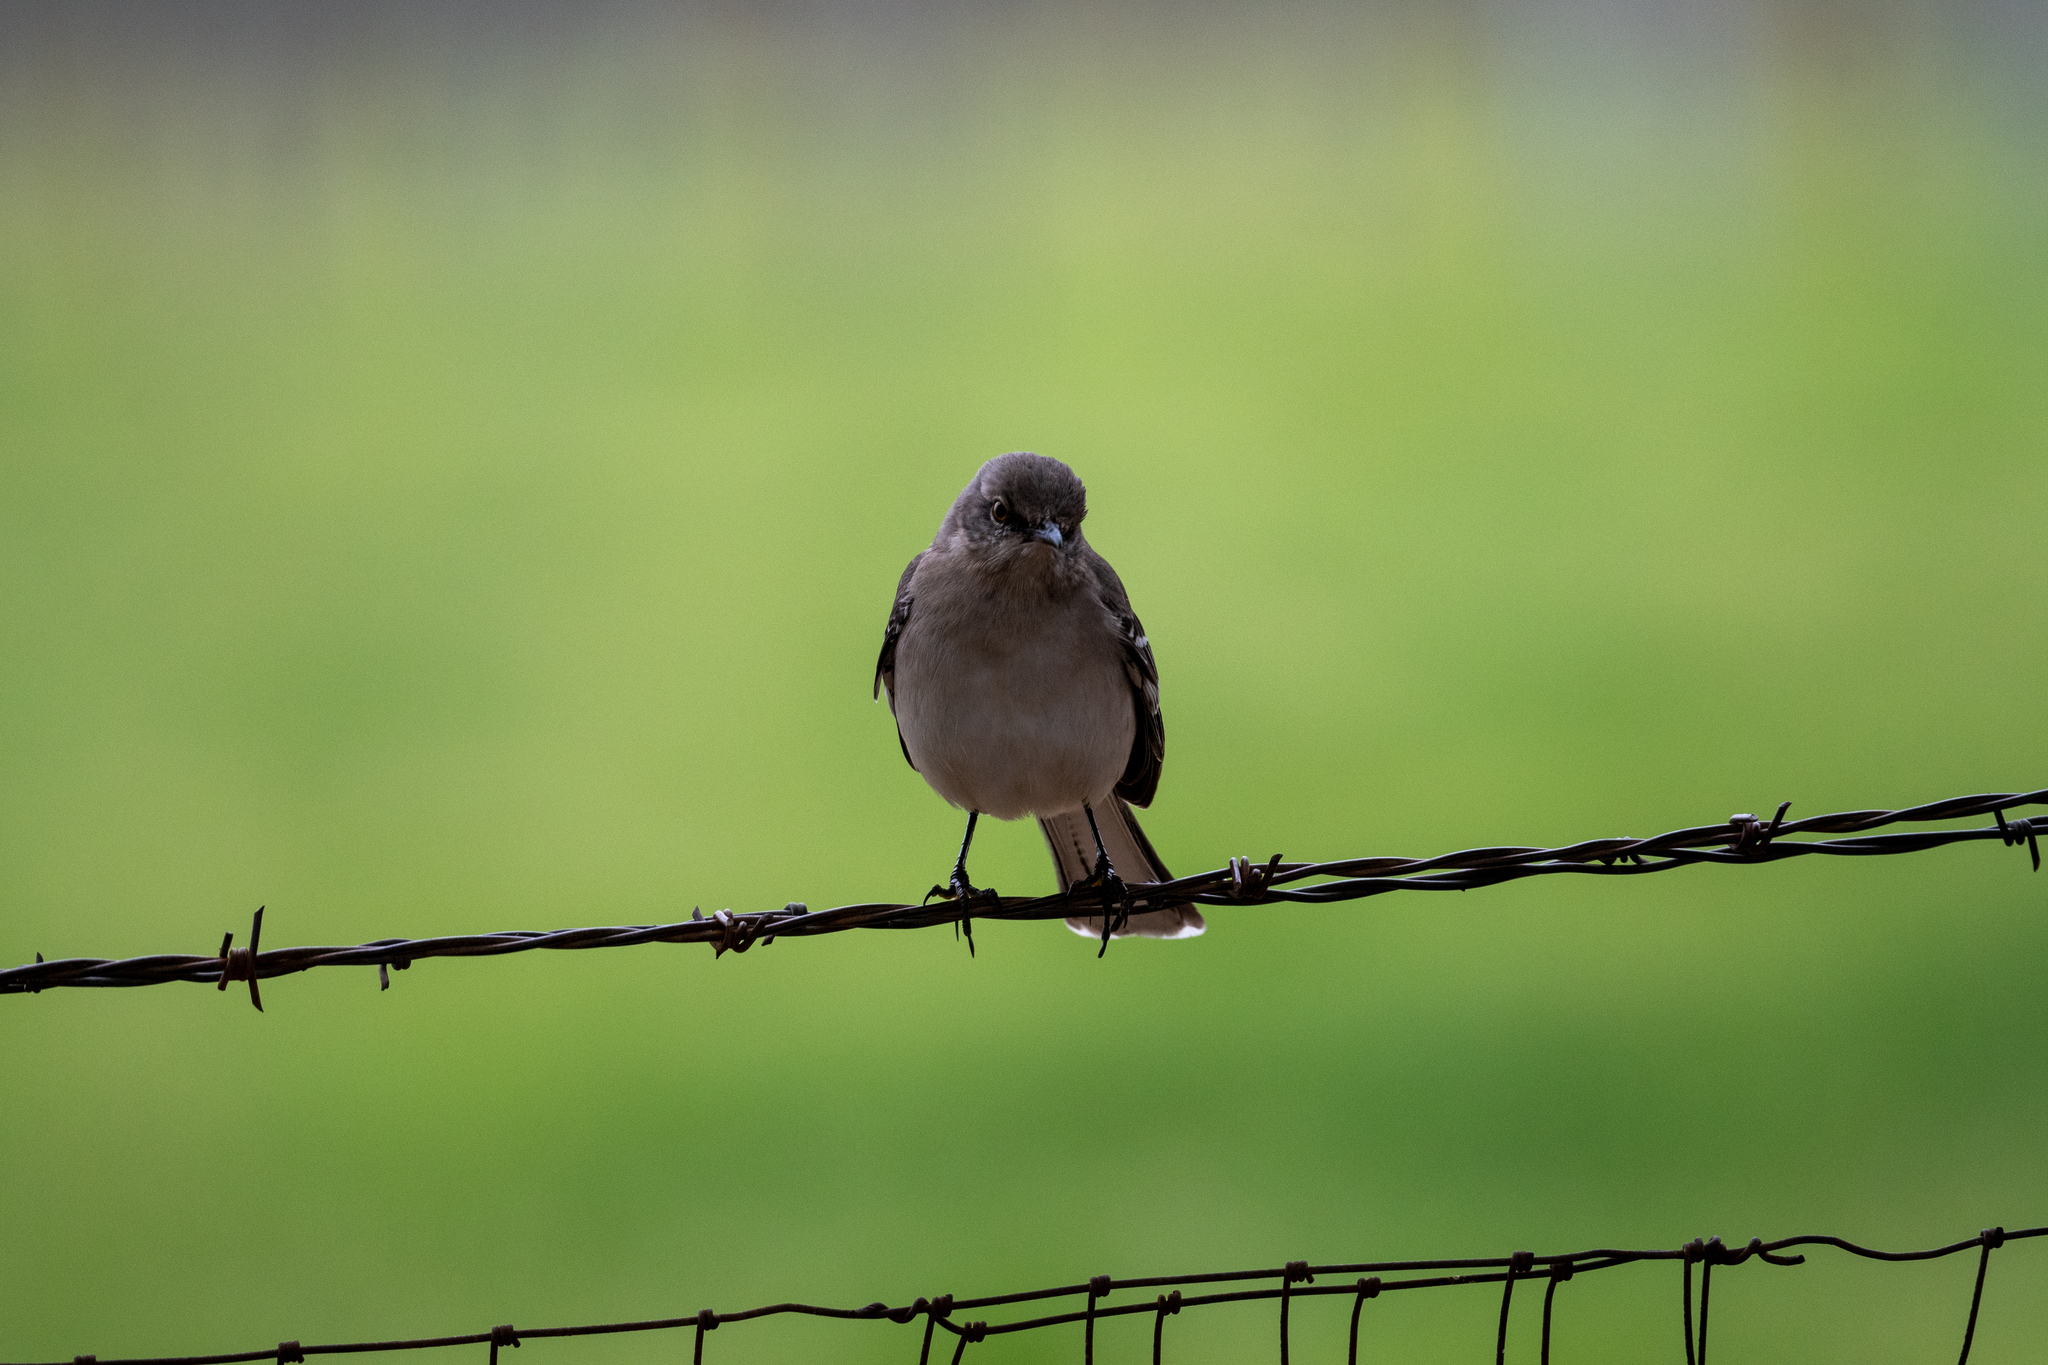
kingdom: Animalia
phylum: Chordata
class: Aves
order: Passeriformes
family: Parulidae
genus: Setophaga
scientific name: Setophaga coronata
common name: Myrtle warbler
